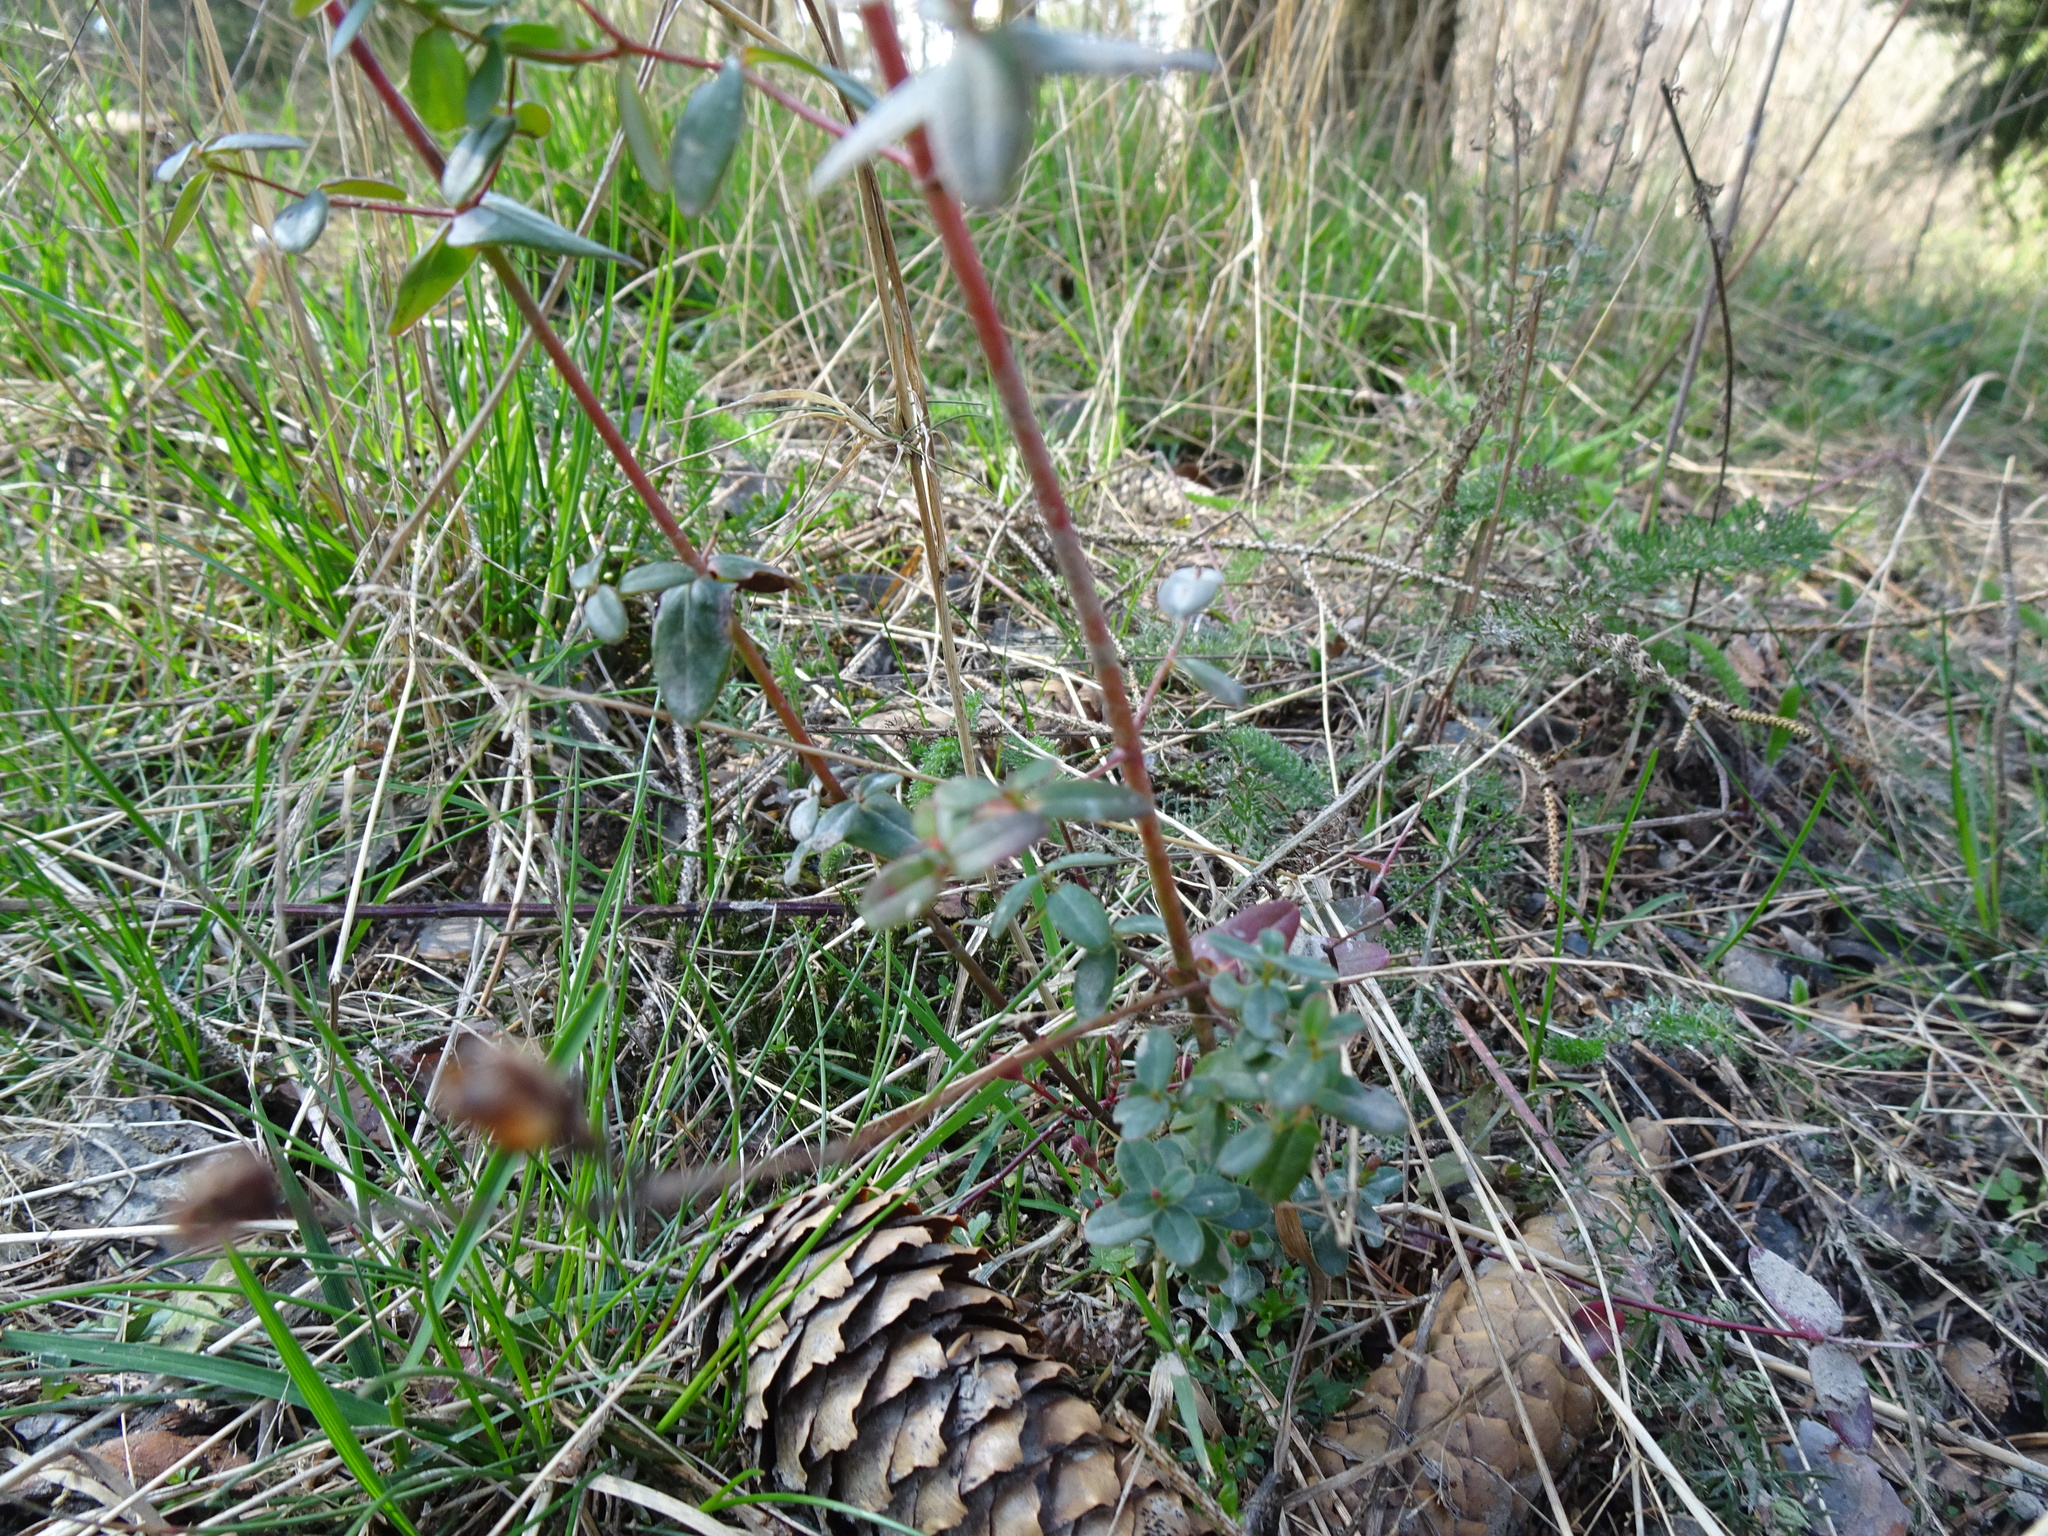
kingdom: Plantae
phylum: Tracheophyta
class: Magnoliopsida
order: Malpighiales
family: Hypericaceae
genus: Hypericum
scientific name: Hypericum pulchrum
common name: Slender st. john's-wort
